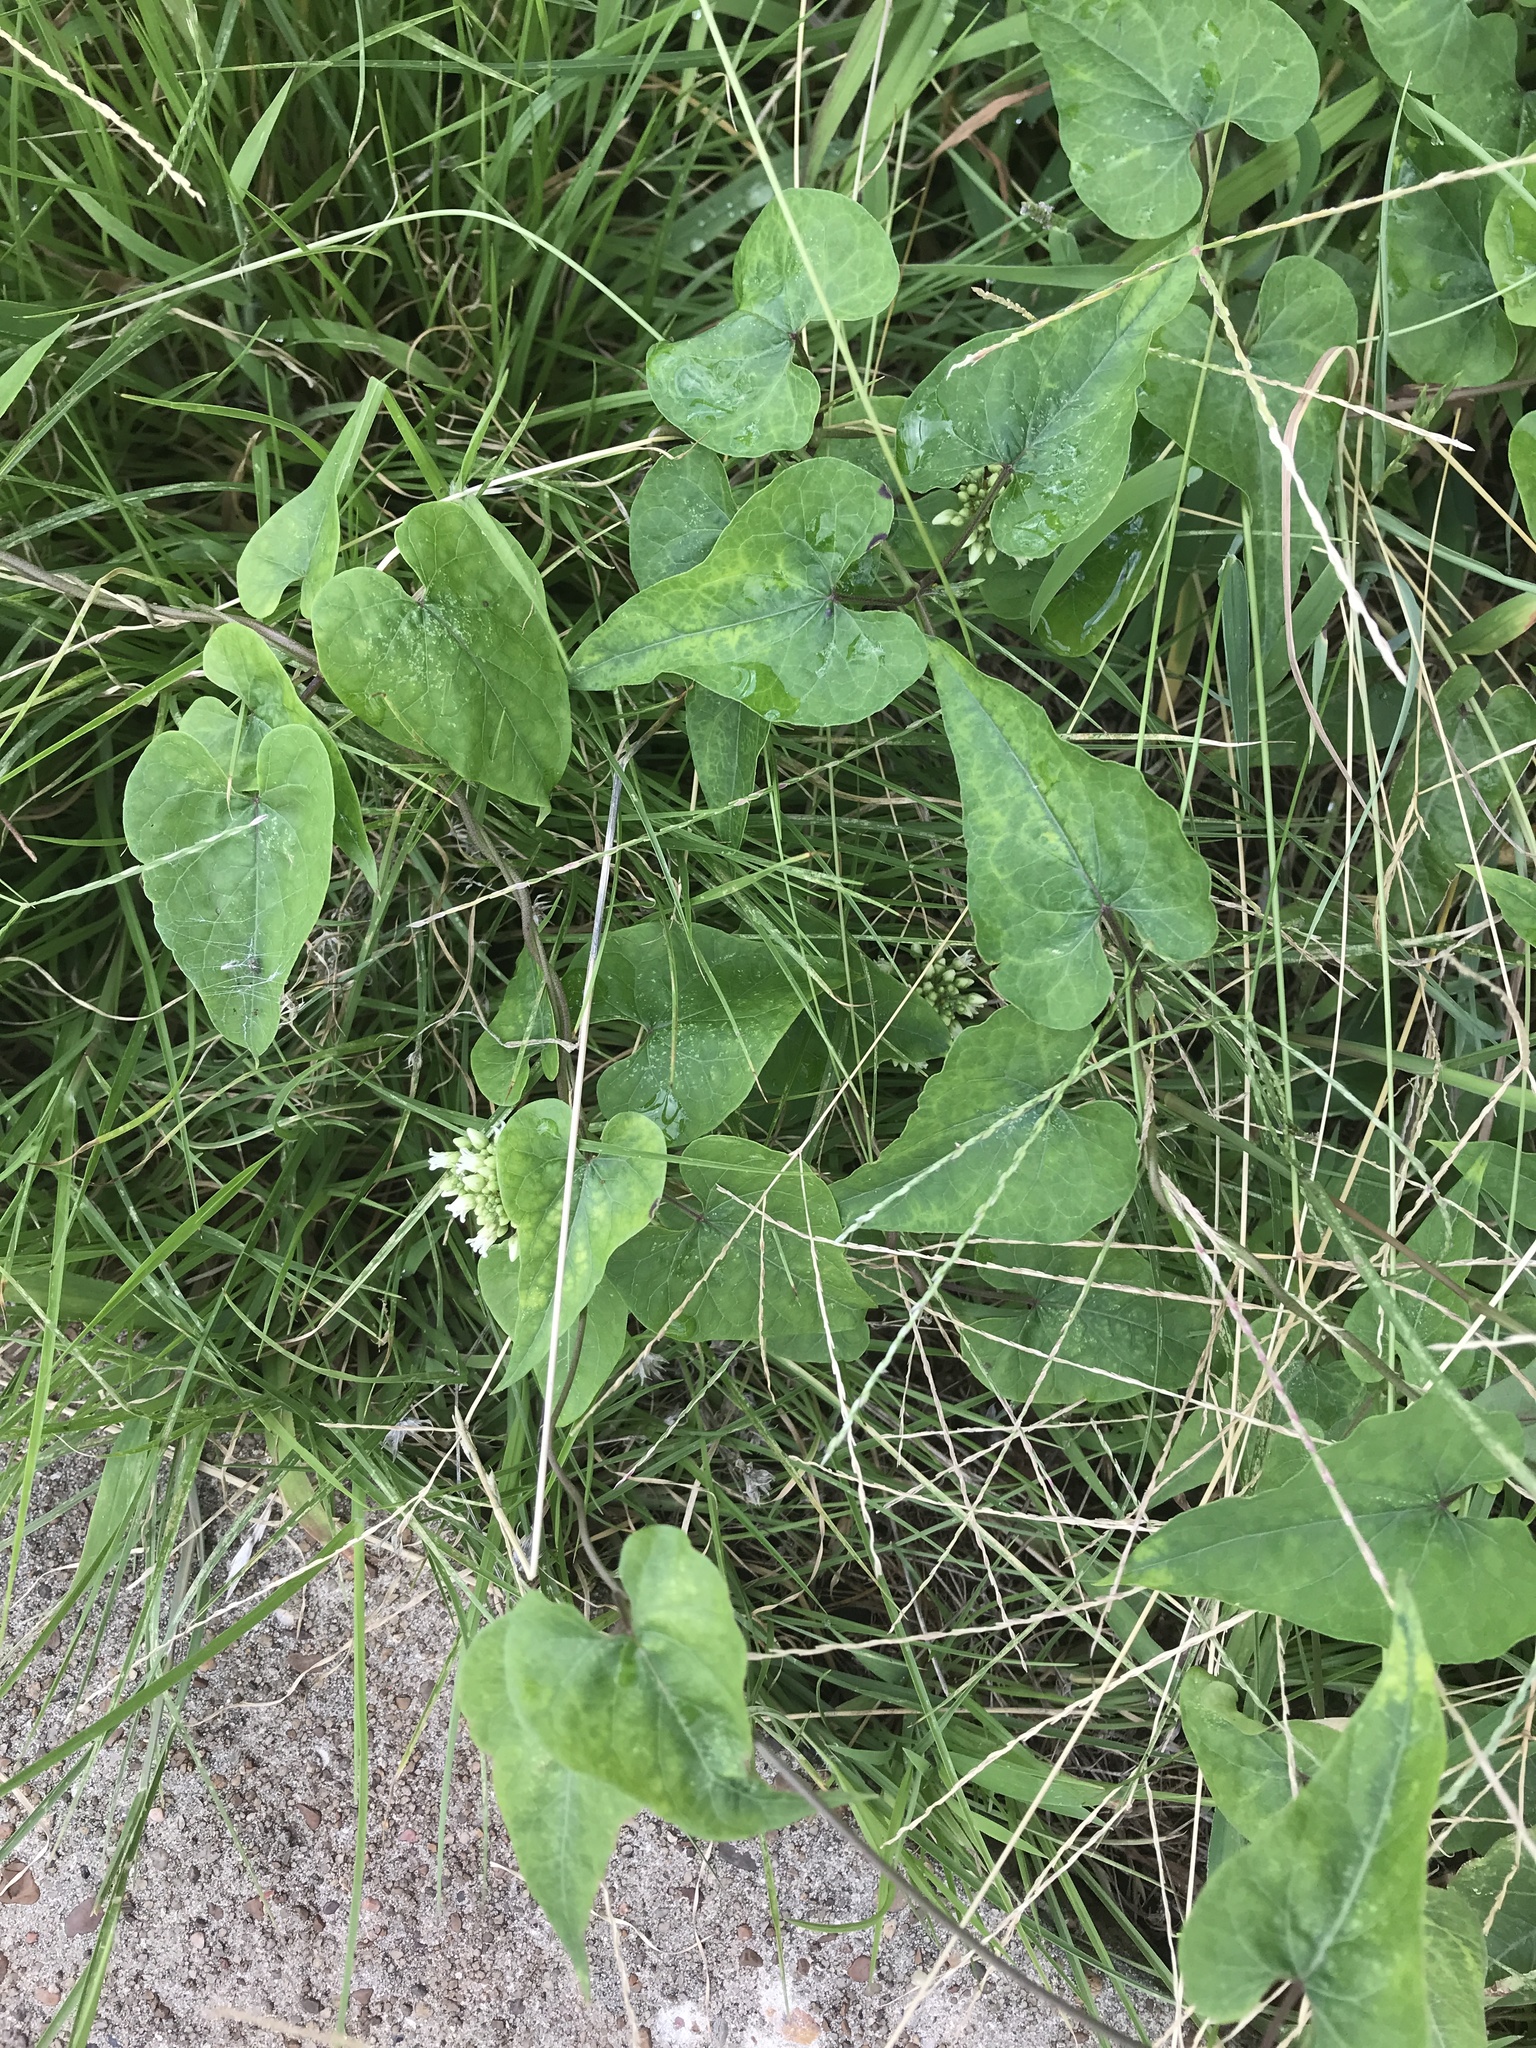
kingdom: Plantae
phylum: Tracheophyta
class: Magnoliopsida
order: Gentianales
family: Apocynaceae
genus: Cynanchum
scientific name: Cynanchum laeve
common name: Sandvine
